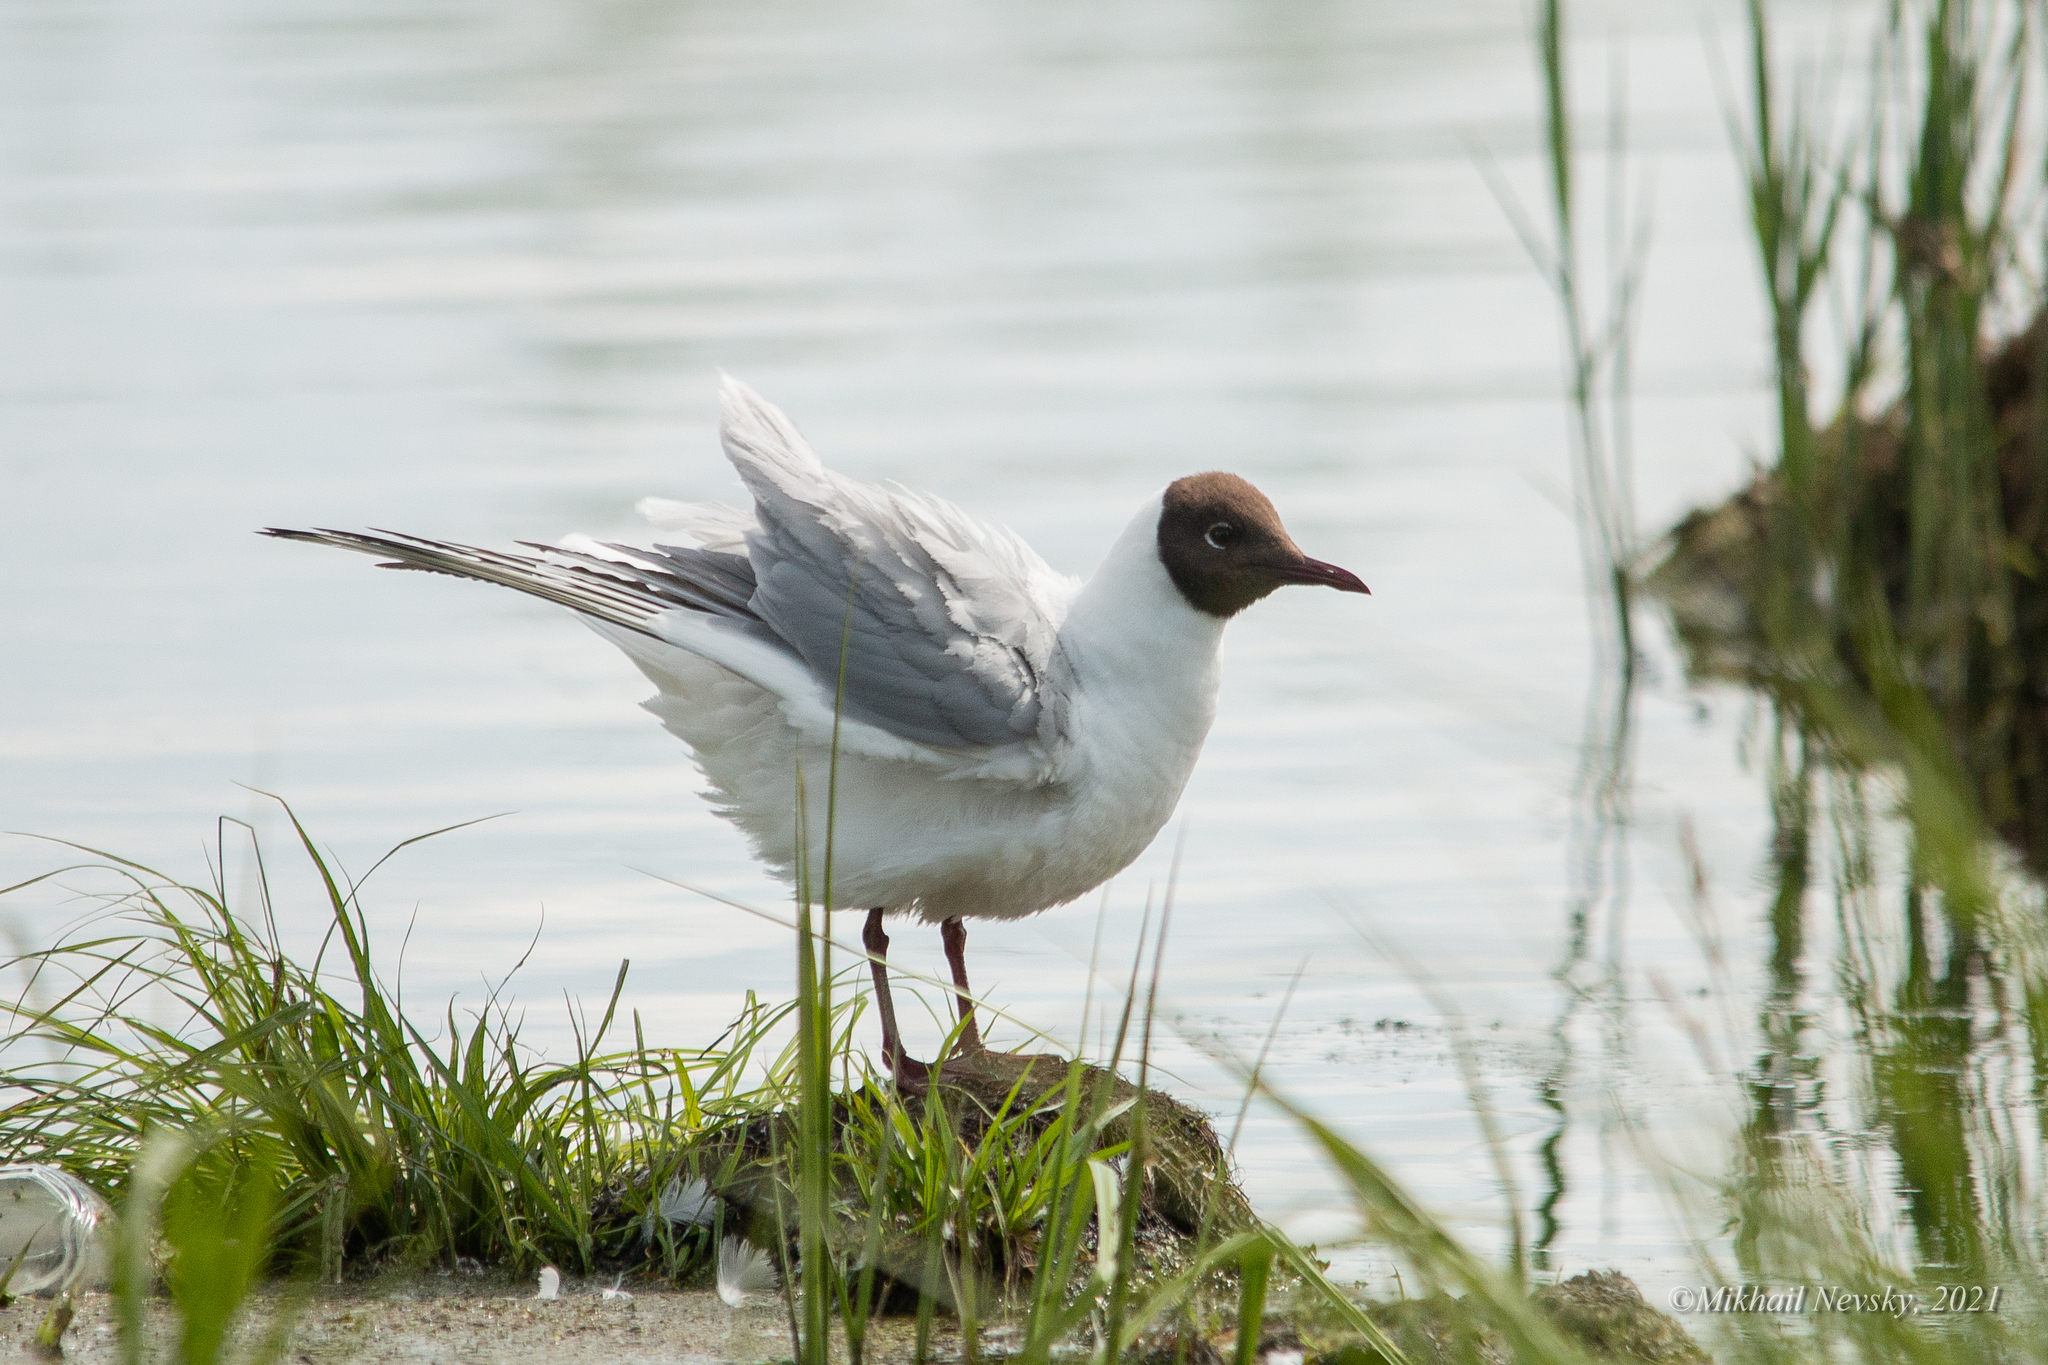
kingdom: Animalia
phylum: Chordata
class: Aves
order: Charadriiformes
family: Laridae
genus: Chroicocephalus
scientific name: Chroicocephalus ridibundus
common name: Black-headed gull
